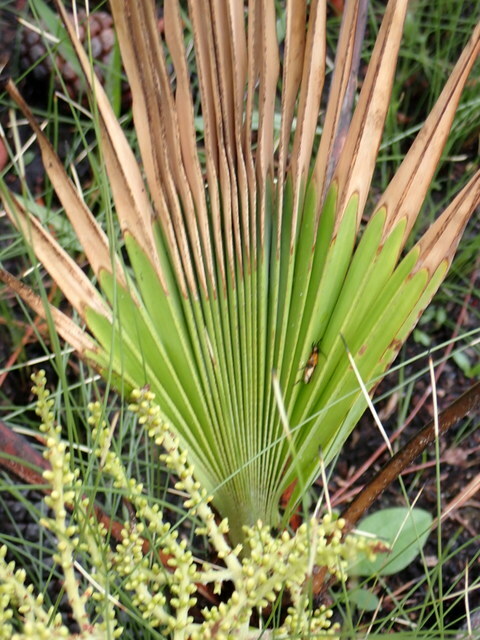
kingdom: Plantae
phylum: Tracheophyta
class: Liliopsida
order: Arecales
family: Arecaceae
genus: Serenoa
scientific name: Serenoa repens
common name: Saw-palmetto
